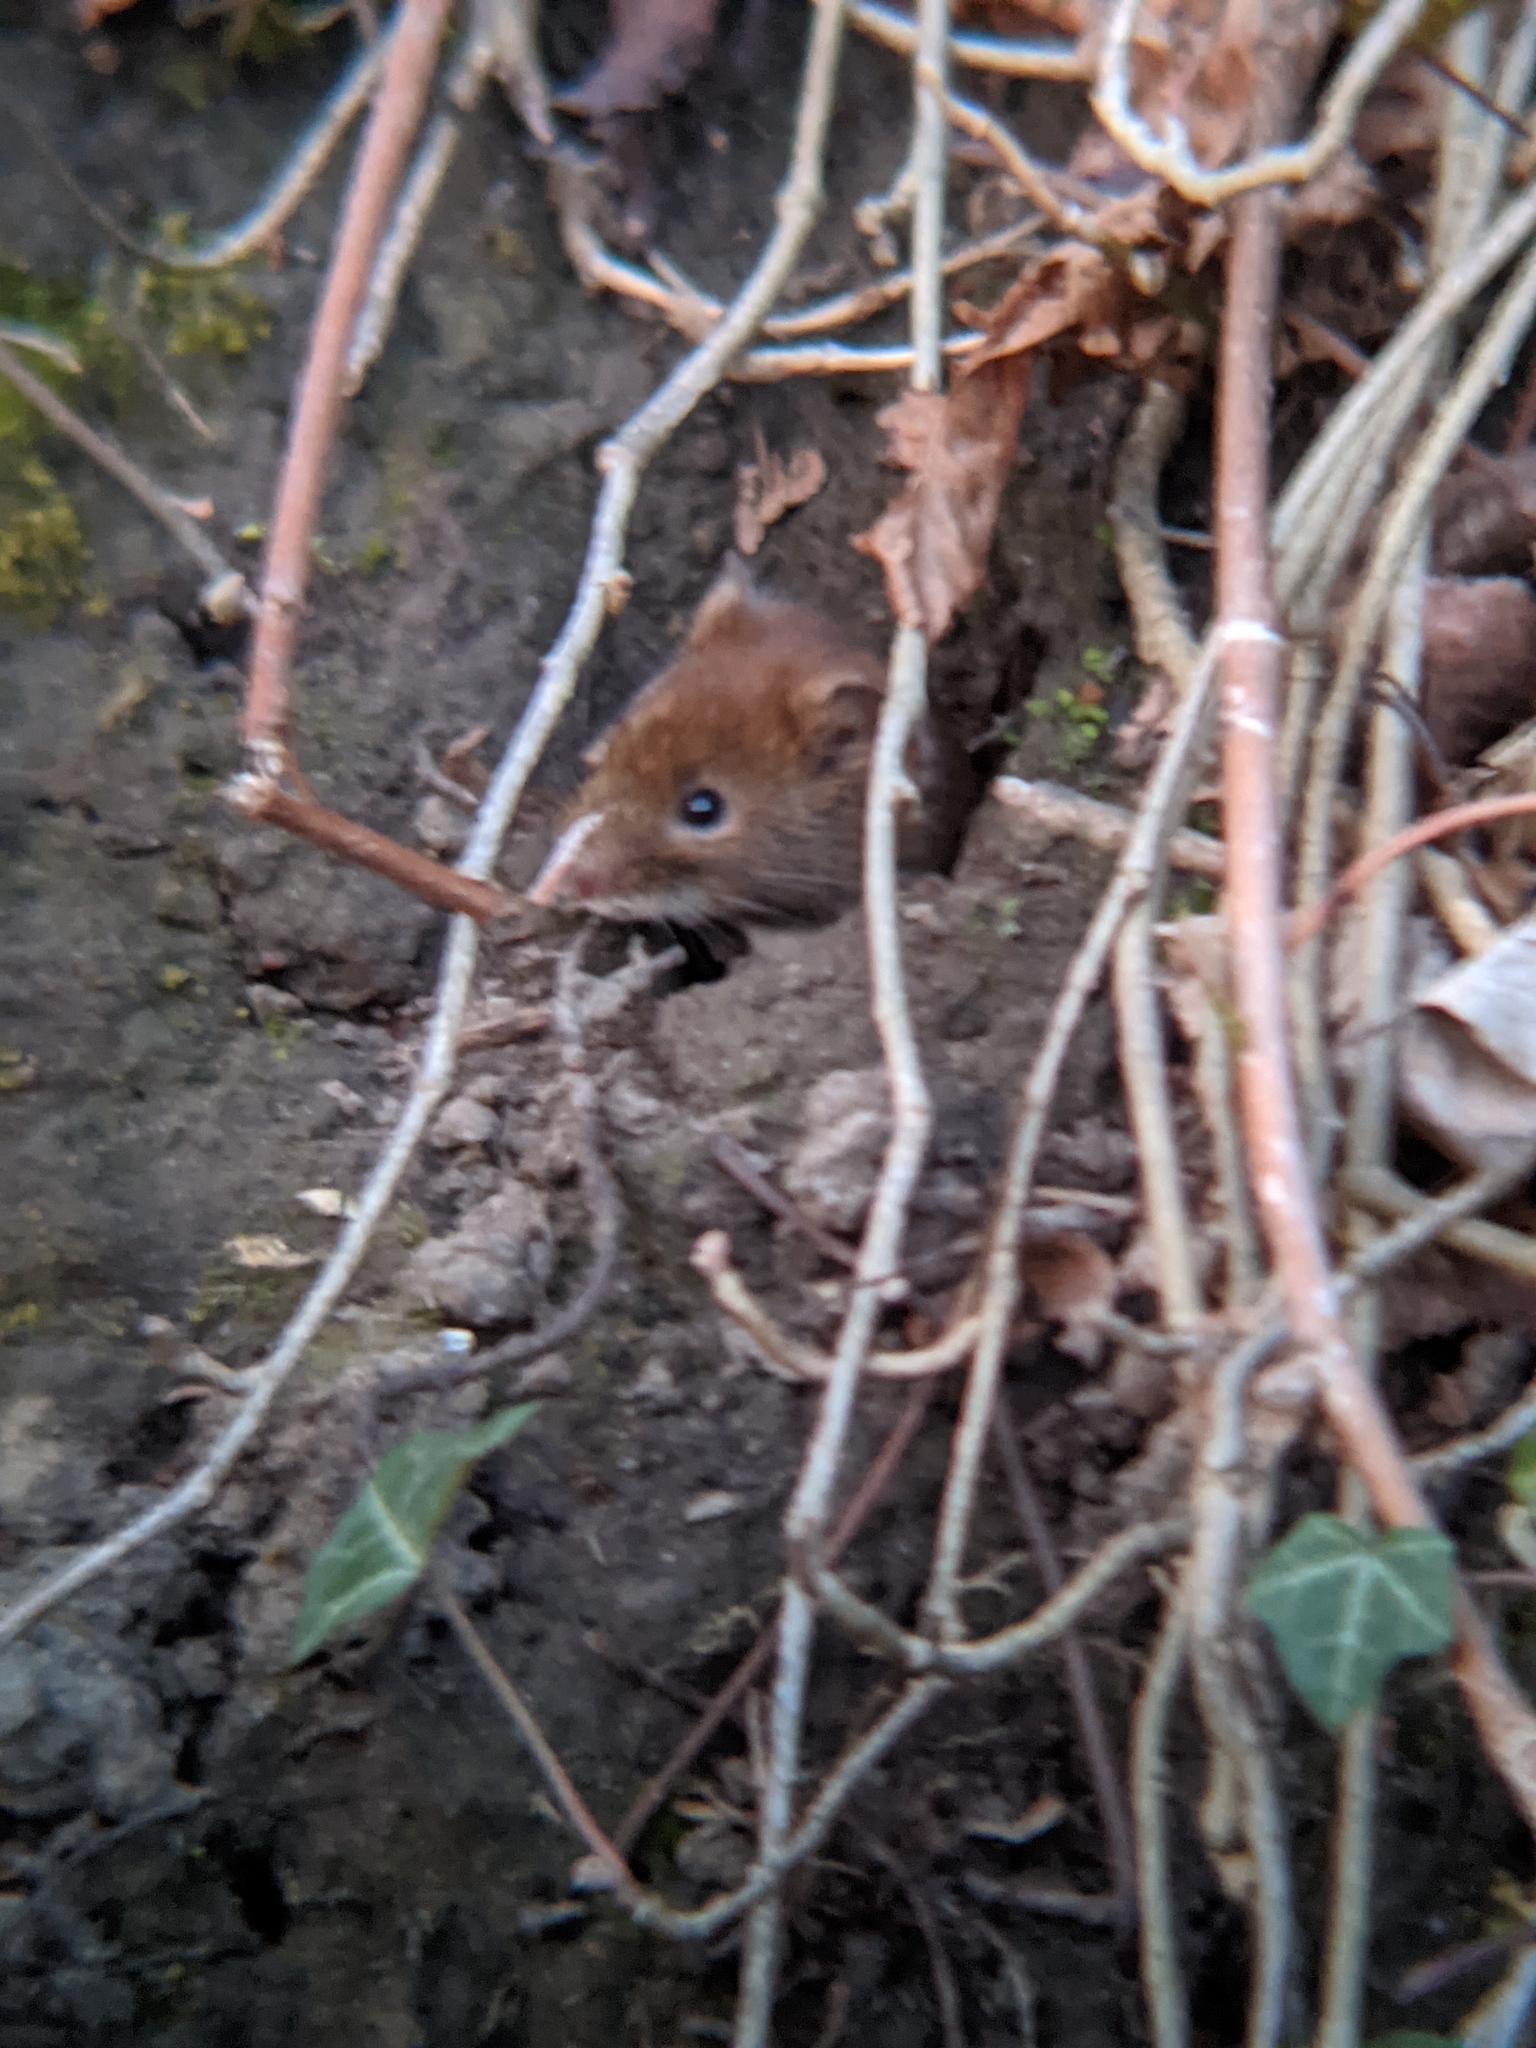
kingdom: Animalia
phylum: Chordata
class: Mammalia
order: Rodentia
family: Cricetidae
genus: Myodes
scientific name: Myodes glareolus
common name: Bank vole
